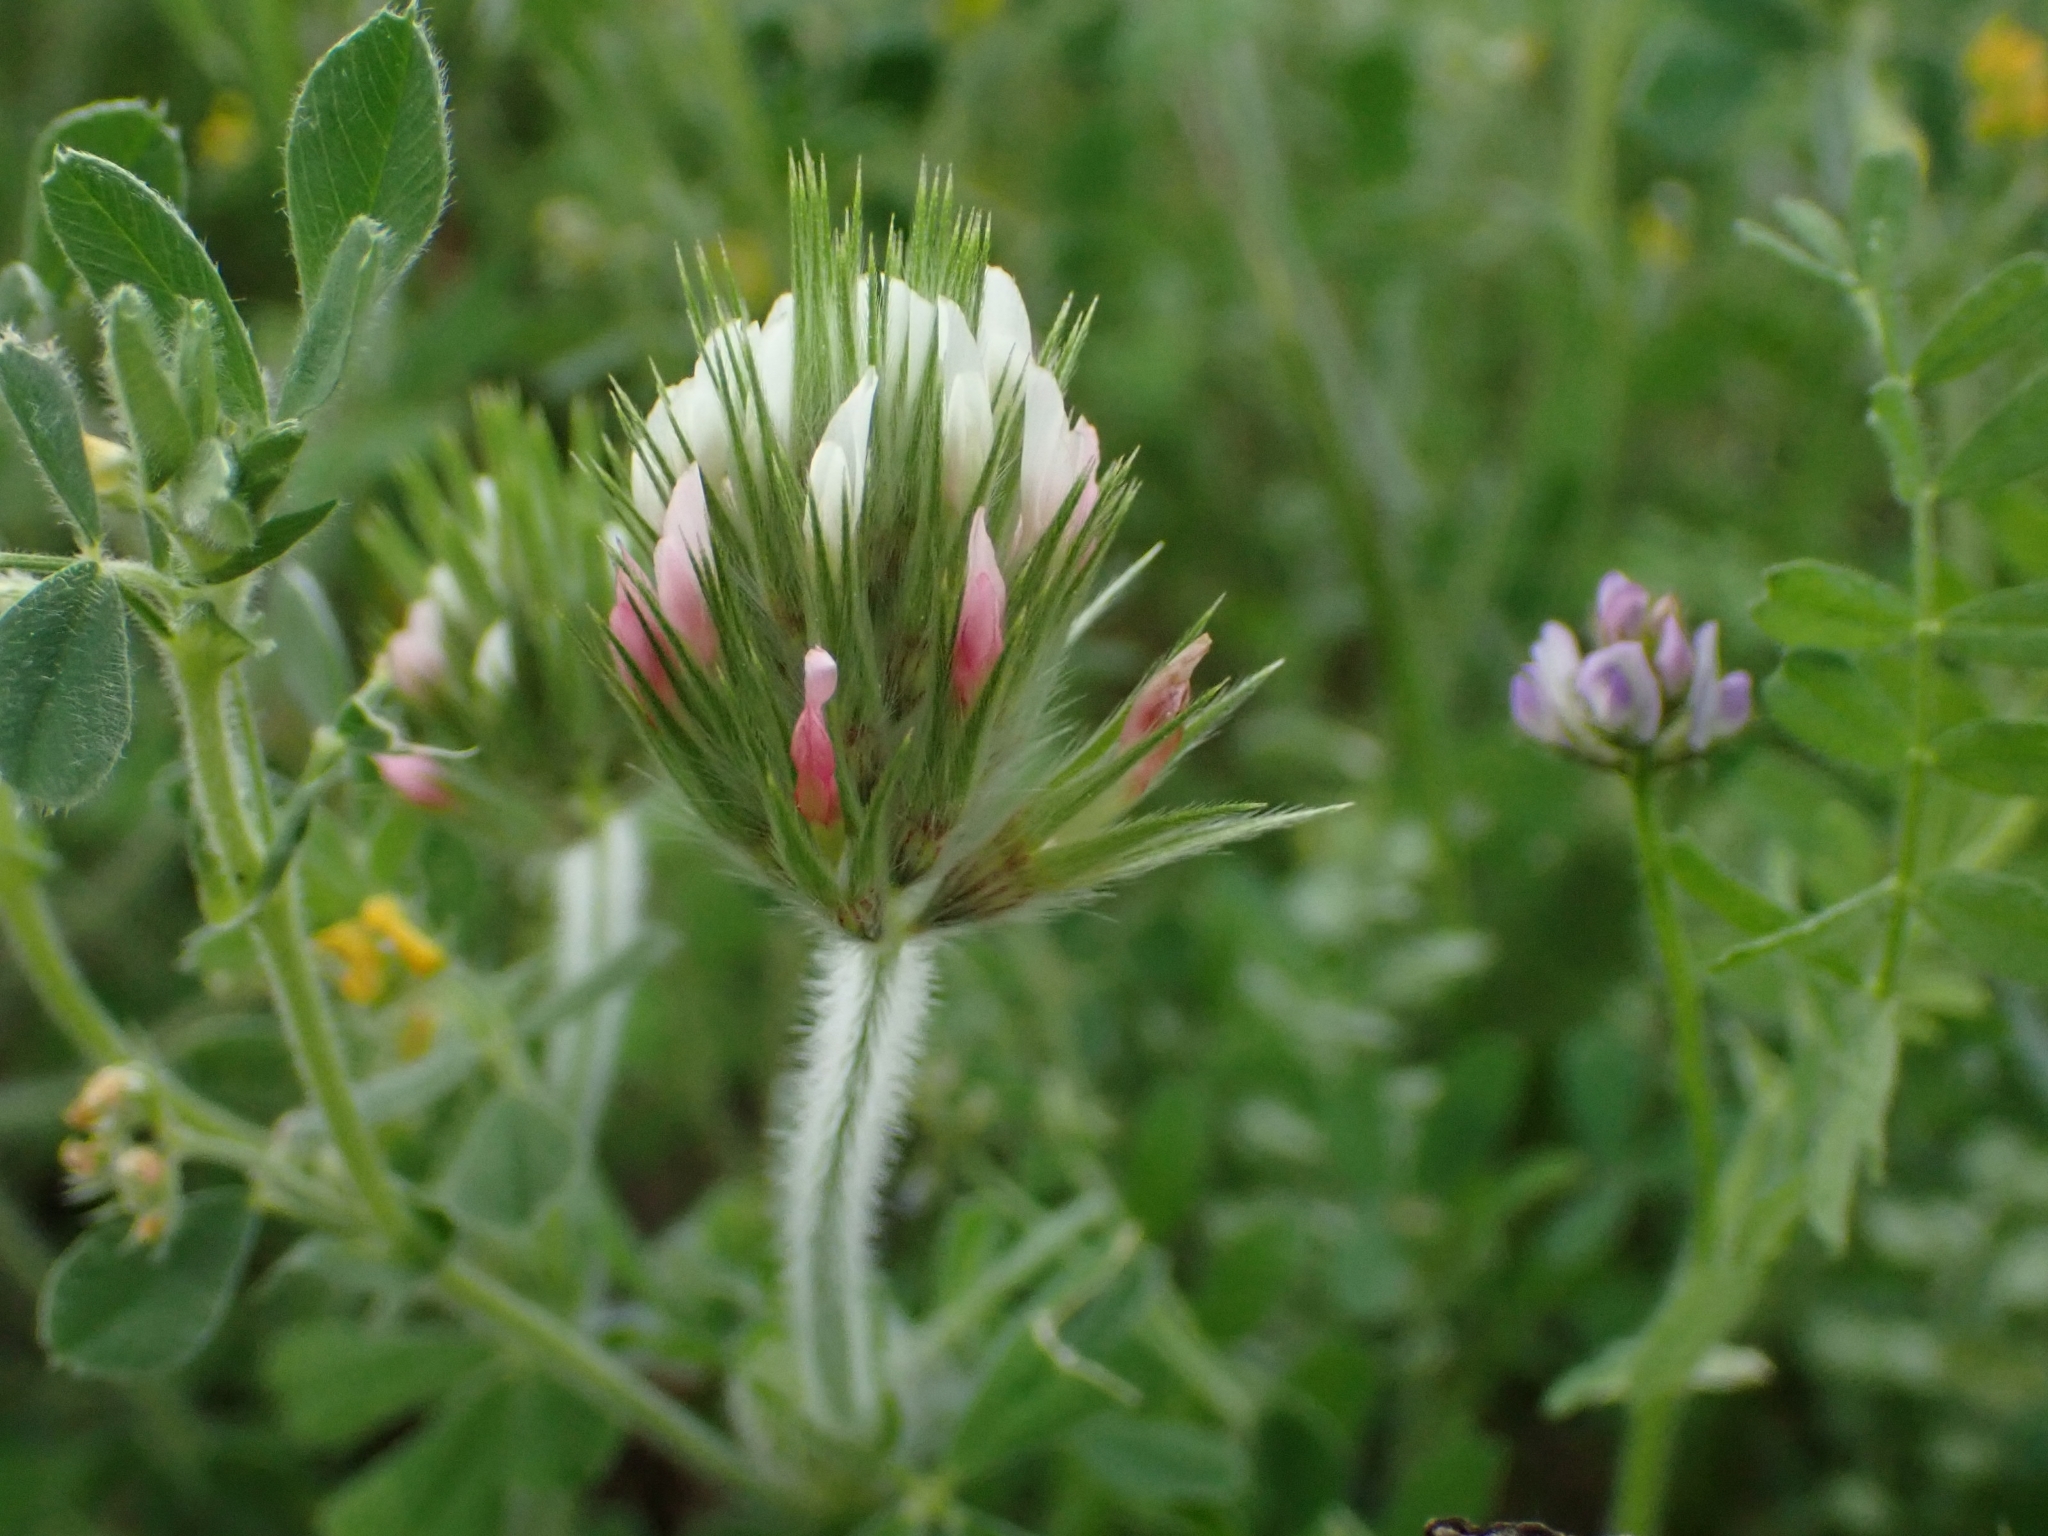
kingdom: Plantae
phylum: Tracheophyta
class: Magnoliopsida
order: Fabales
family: Fabaceae
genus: Trifolium
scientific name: Trifolium stellatum
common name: Starry clover
